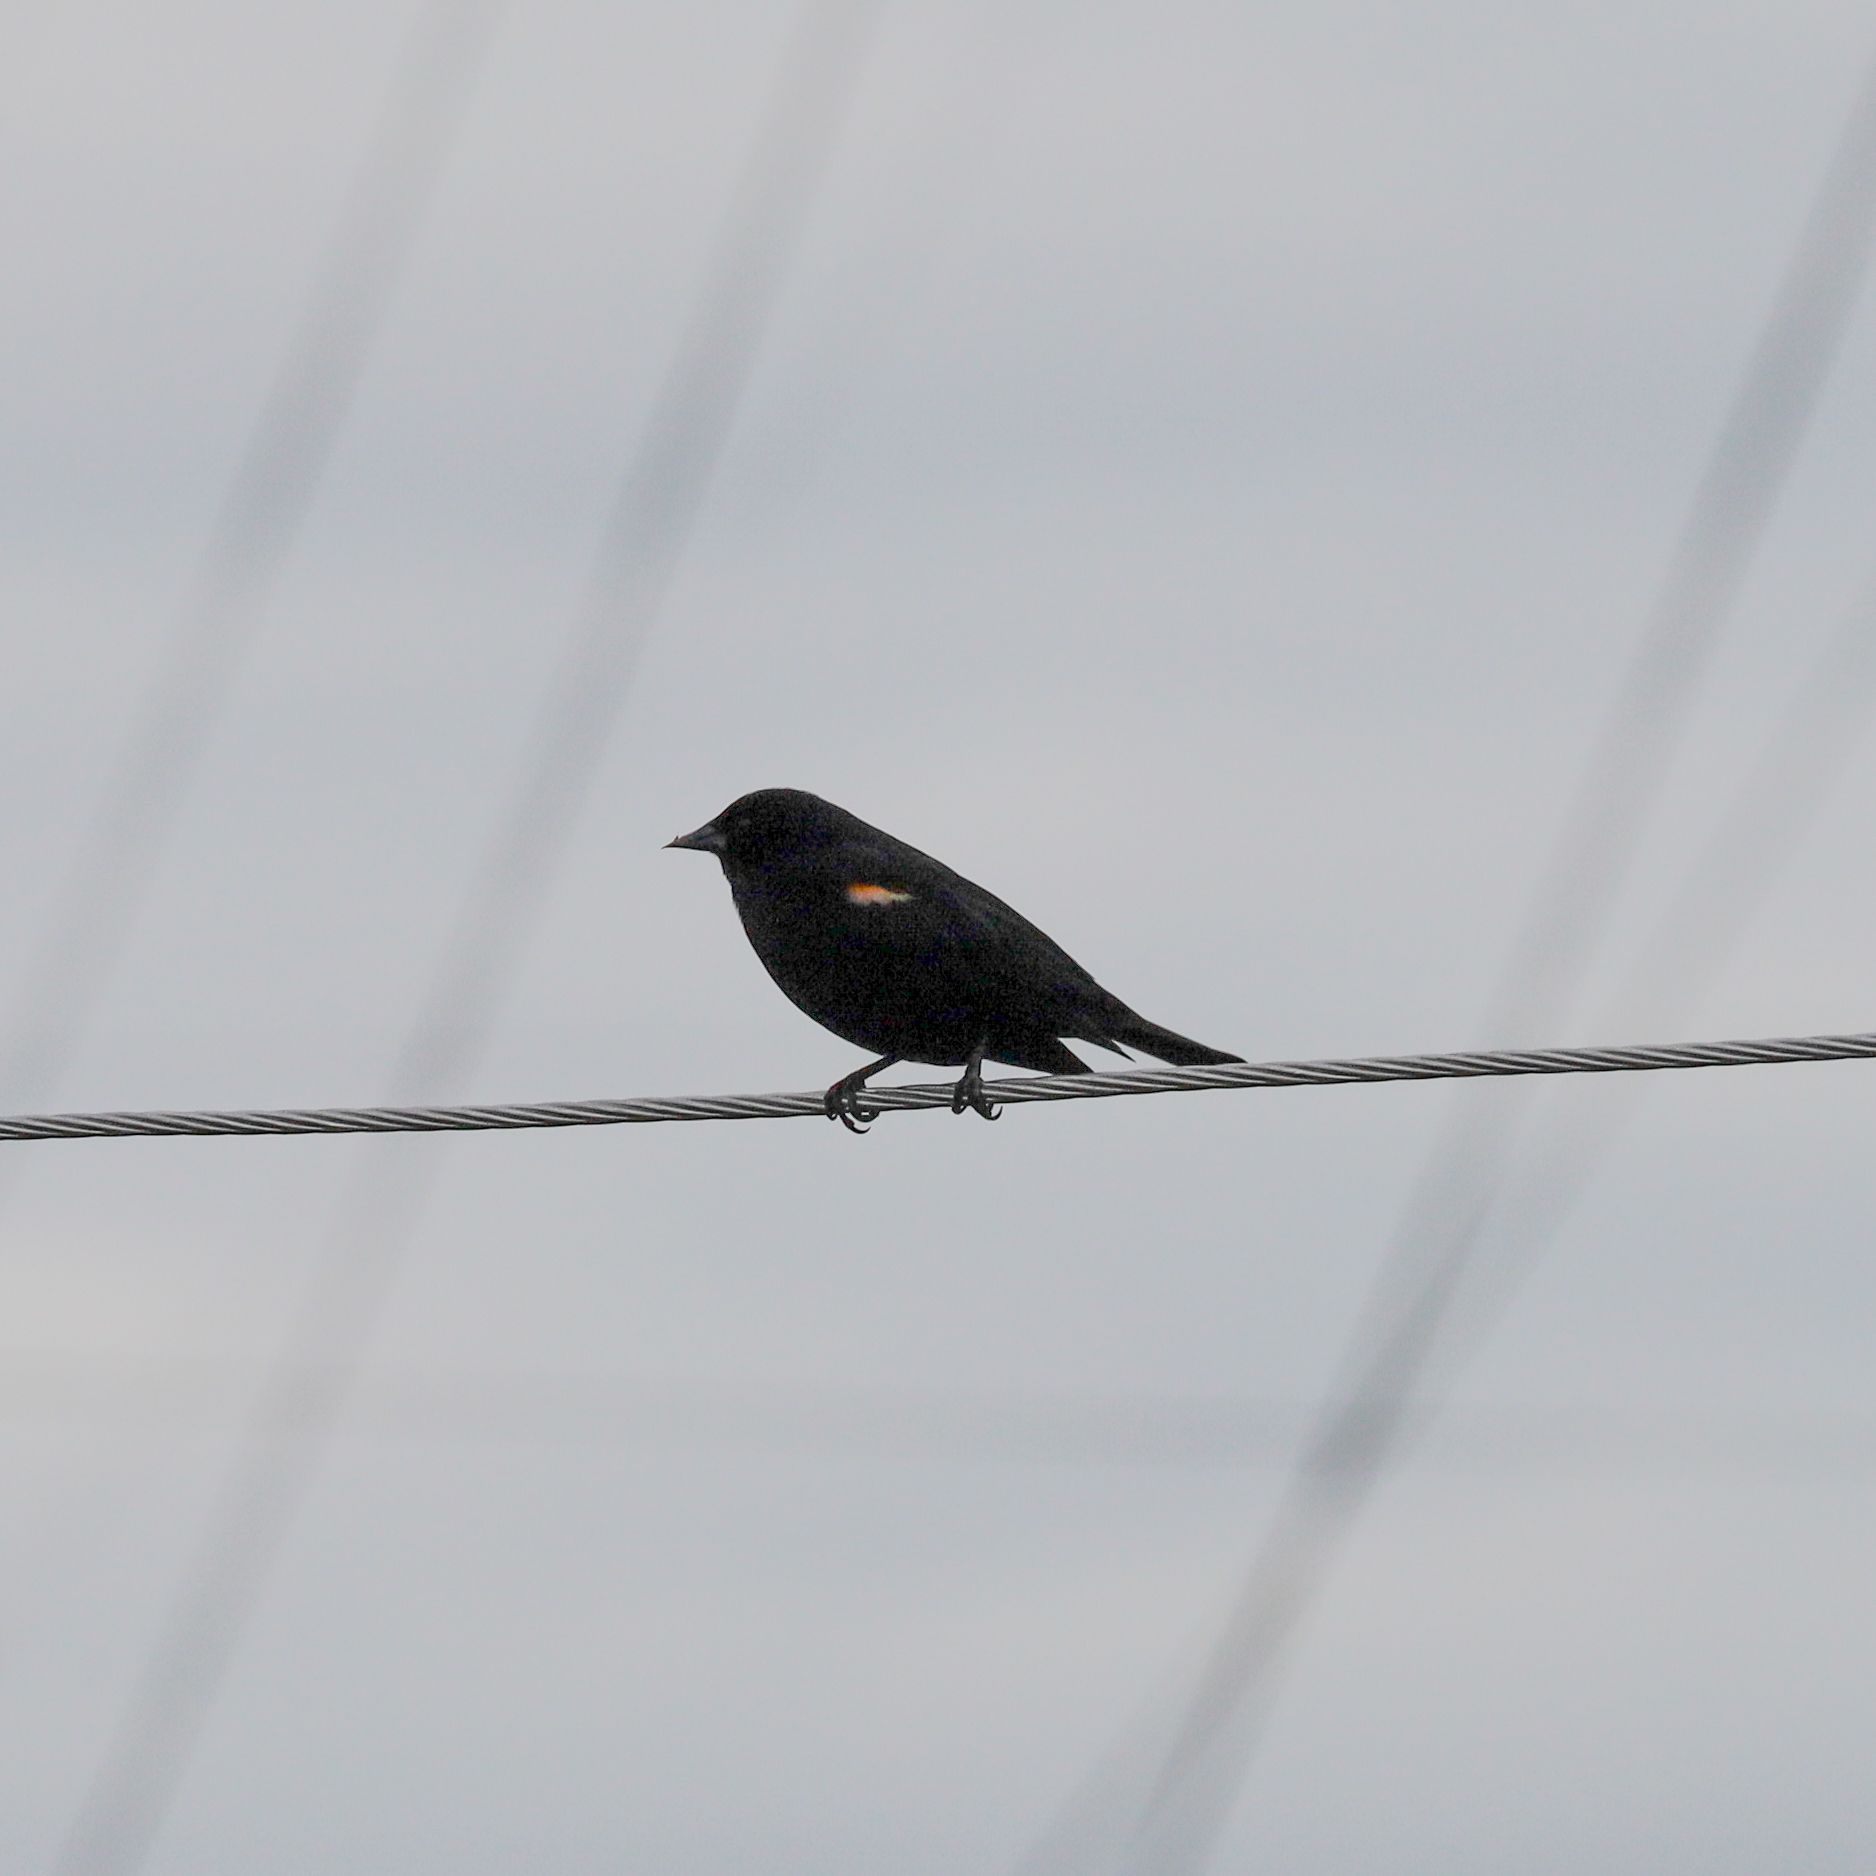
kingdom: Animalia
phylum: Chordata
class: Aves
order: Passeriformes
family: Icteridae
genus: Agelaius
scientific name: Agelaius phoeniceus
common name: Red-winged blackbird
